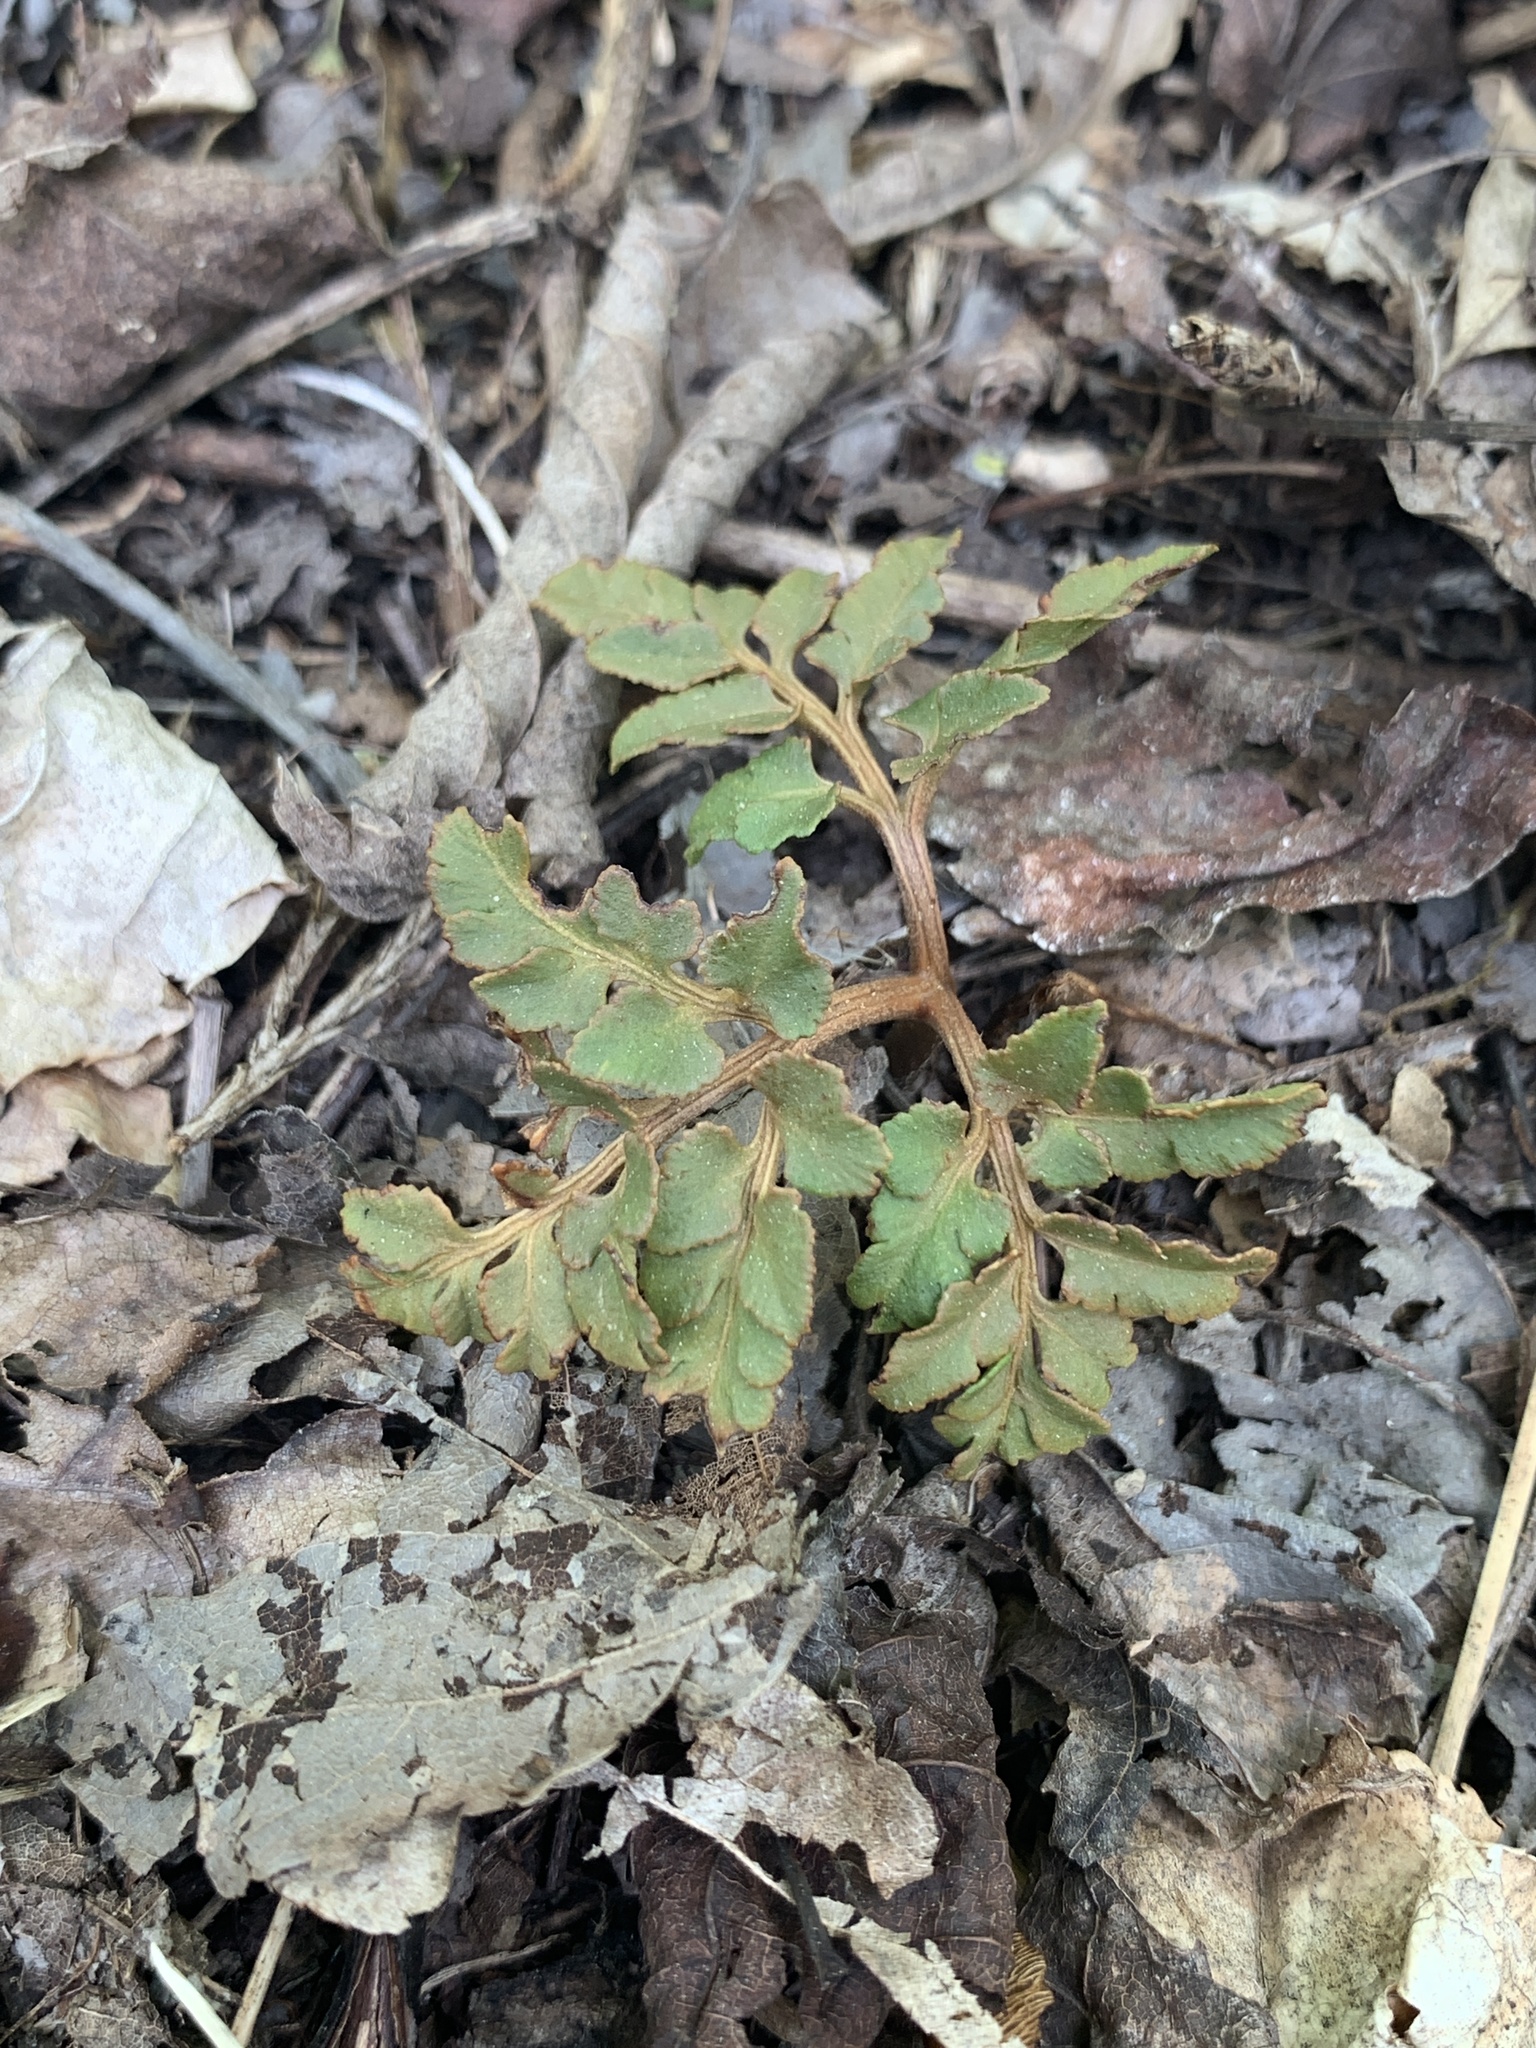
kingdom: Plantae
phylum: Tracheophyta
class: Polypodiopsida
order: Ophioglossales
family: Ophioglossaceae
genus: Sceptridium
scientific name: Sceptridium dissectum
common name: Cut-leaved grapefern
